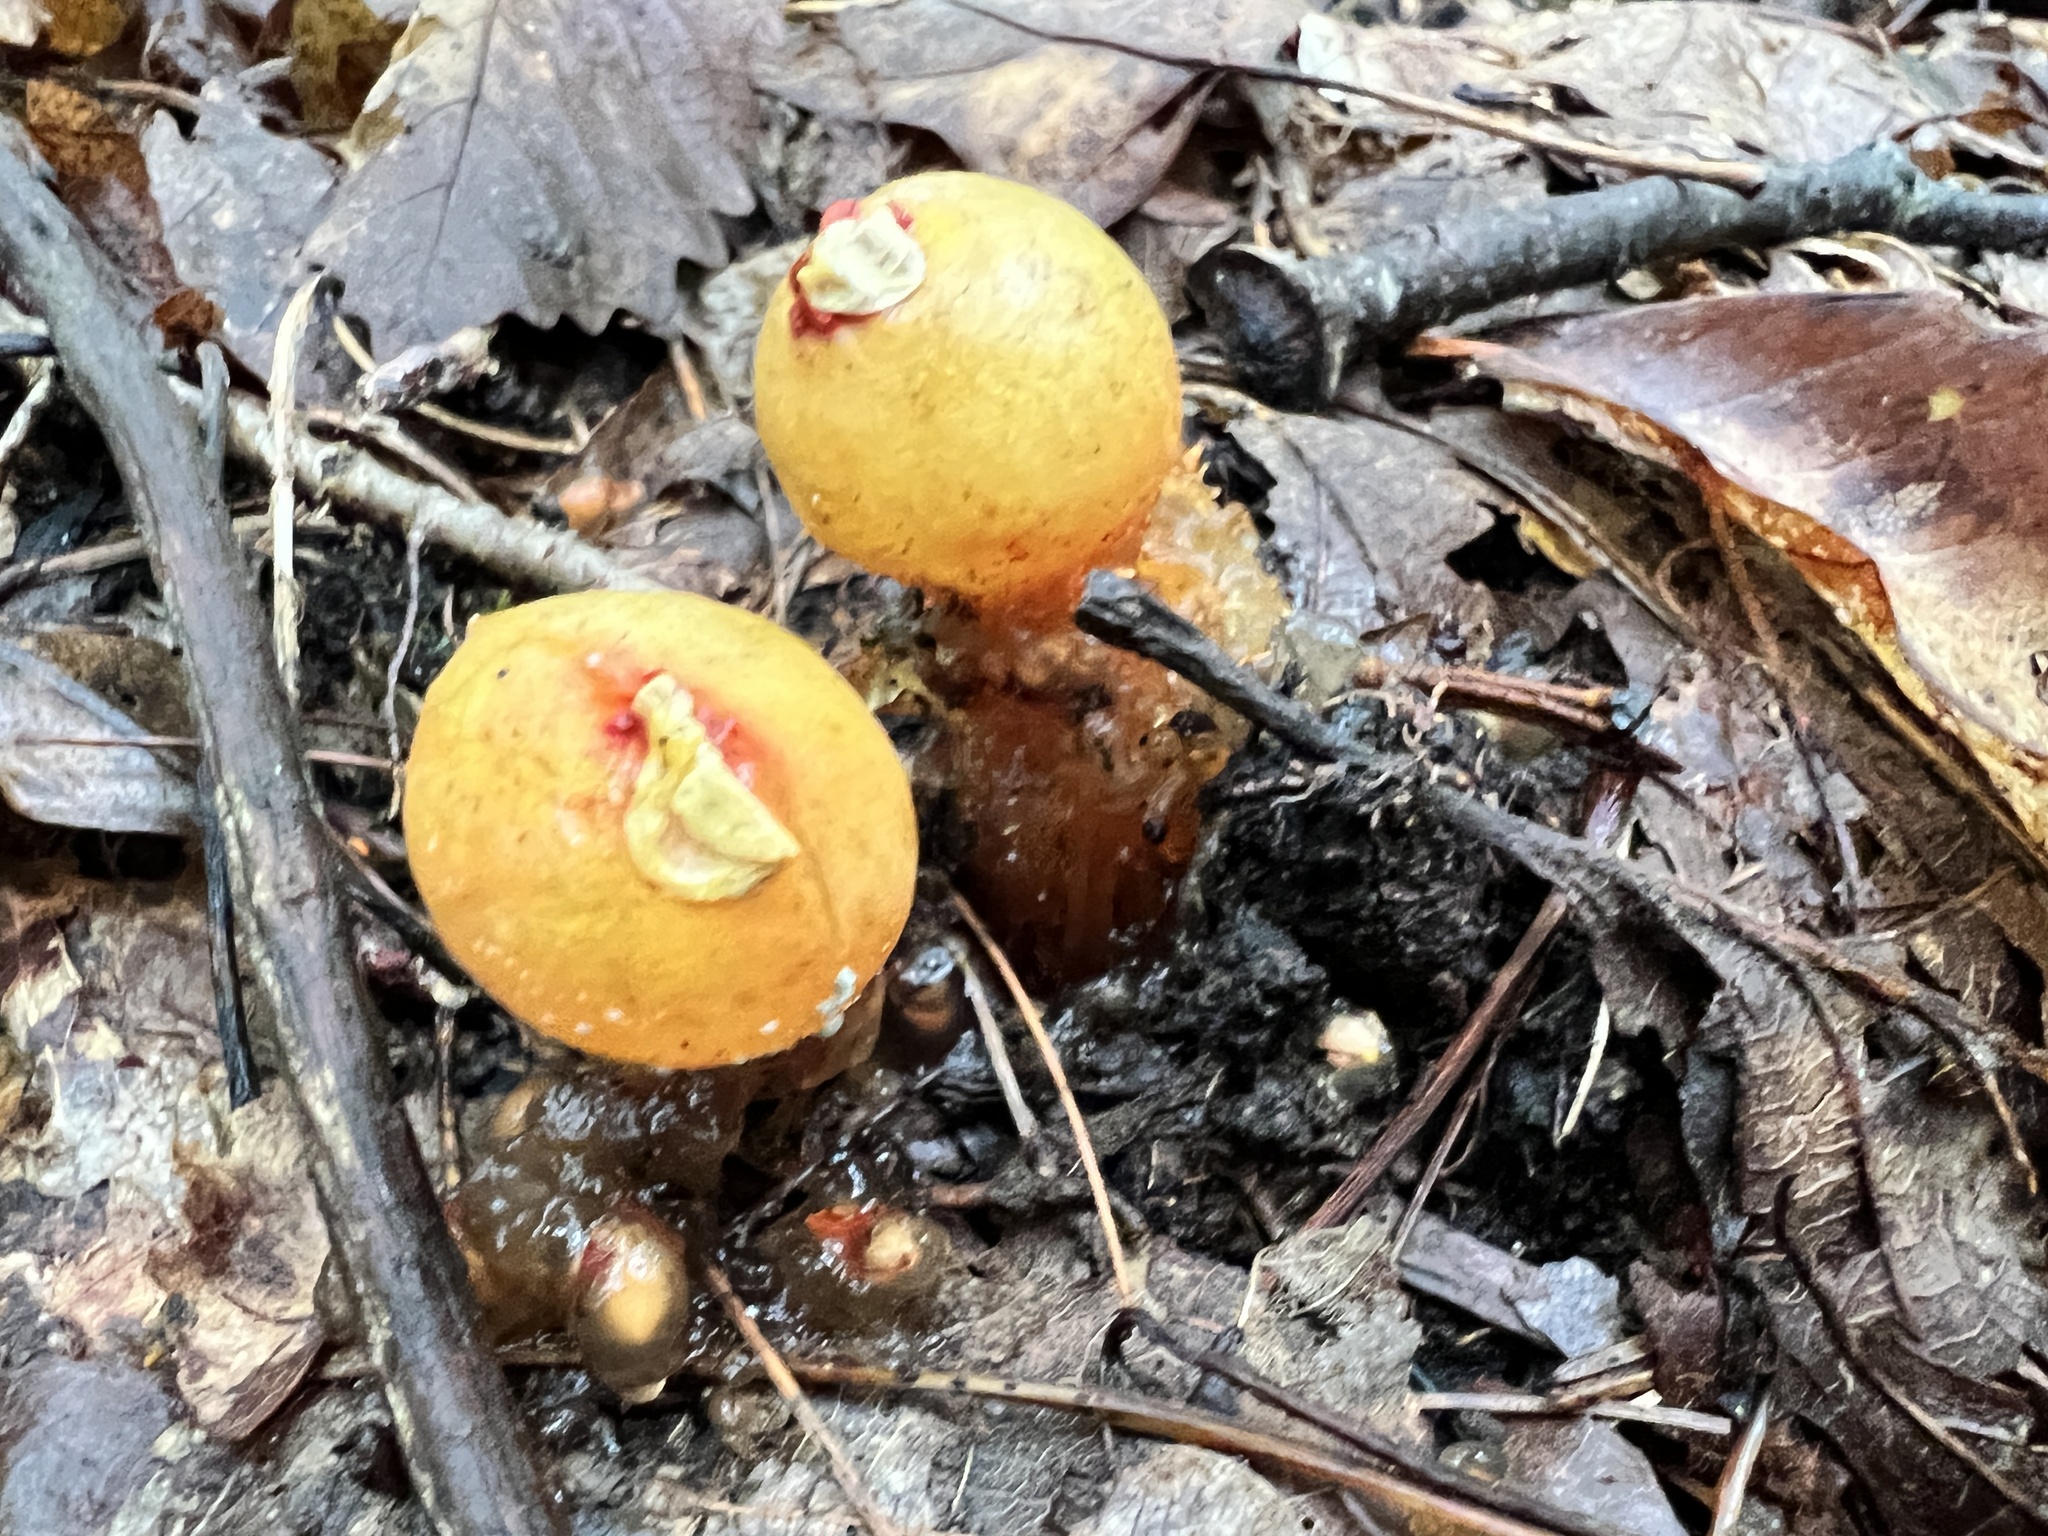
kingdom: Fungi
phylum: Basidiomycota
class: Agaricomycetes
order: Boletales
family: Calostomataceae
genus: Calostoma
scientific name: Calostoma cinnabarinum
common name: Stalked puffball-in-aspic
